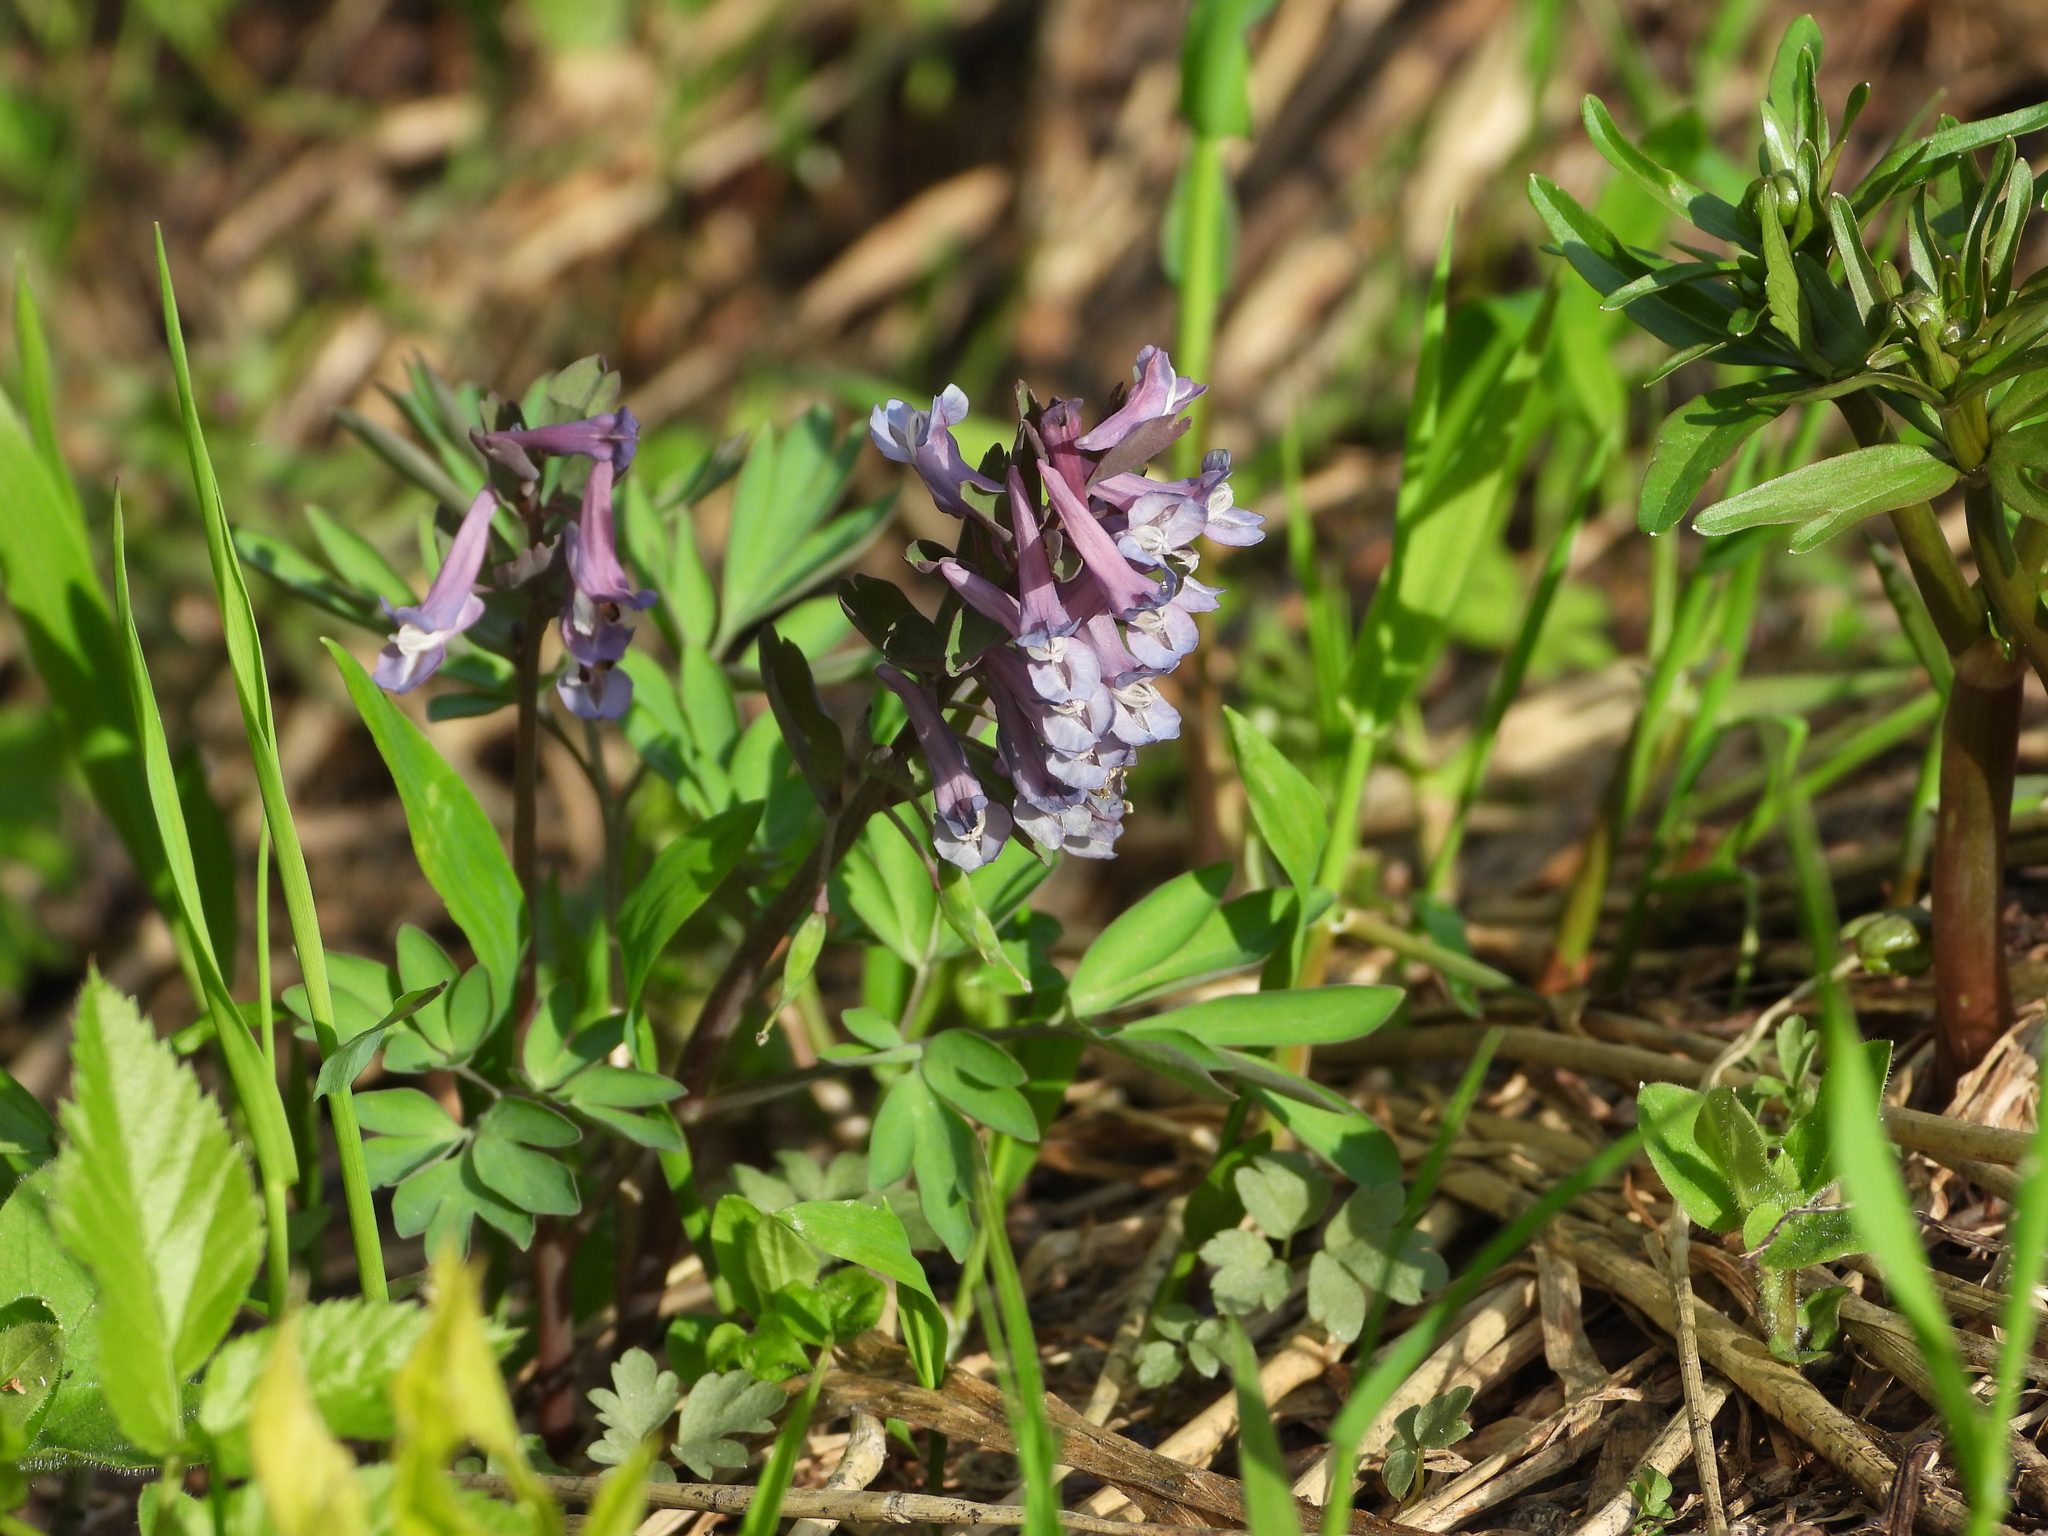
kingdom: Plantae
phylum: Tracheophyta
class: Magnoliopsida
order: Ranunculales
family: Papaveraceae
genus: Corydalis
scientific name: Corydalis solida
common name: Bird-in-a-bush
